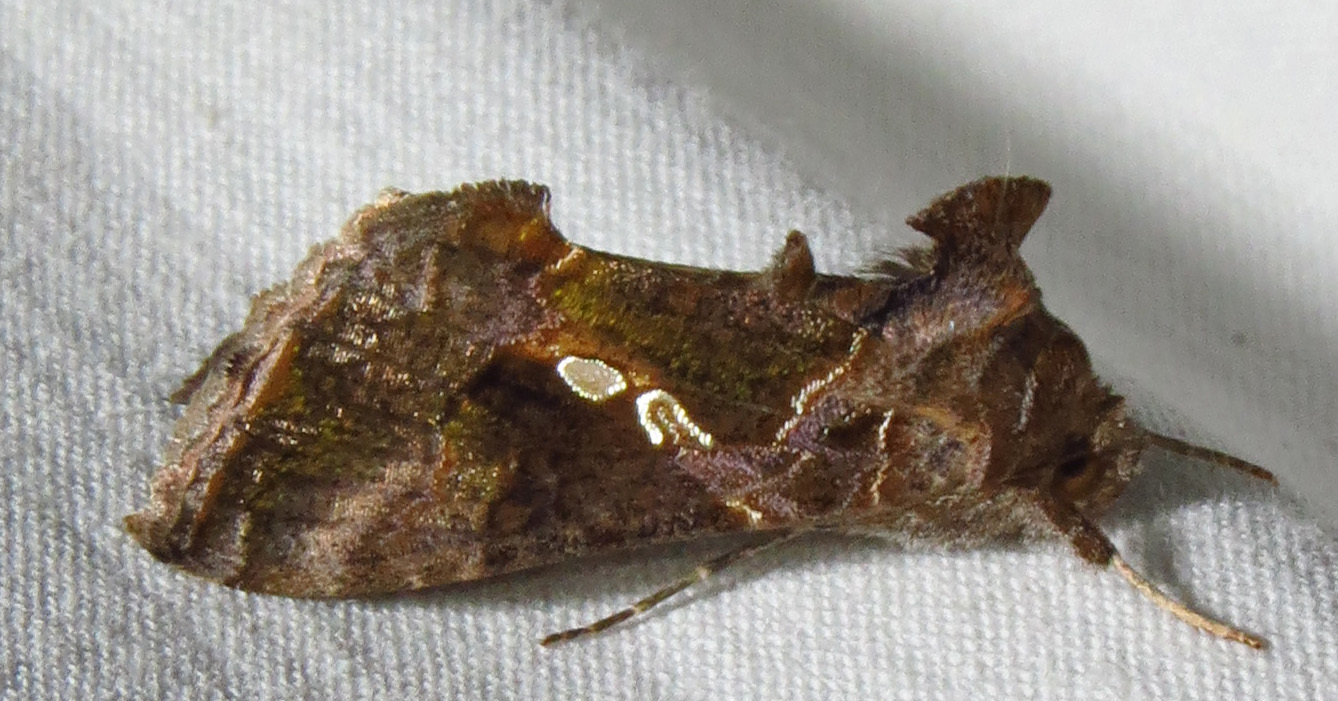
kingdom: Animalia
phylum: Arthropoda
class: Insecta
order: Lepidoptera
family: Noctuidae
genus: Chrysodeixis
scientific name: Chrysodeixis includens
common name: Cutworm moth
